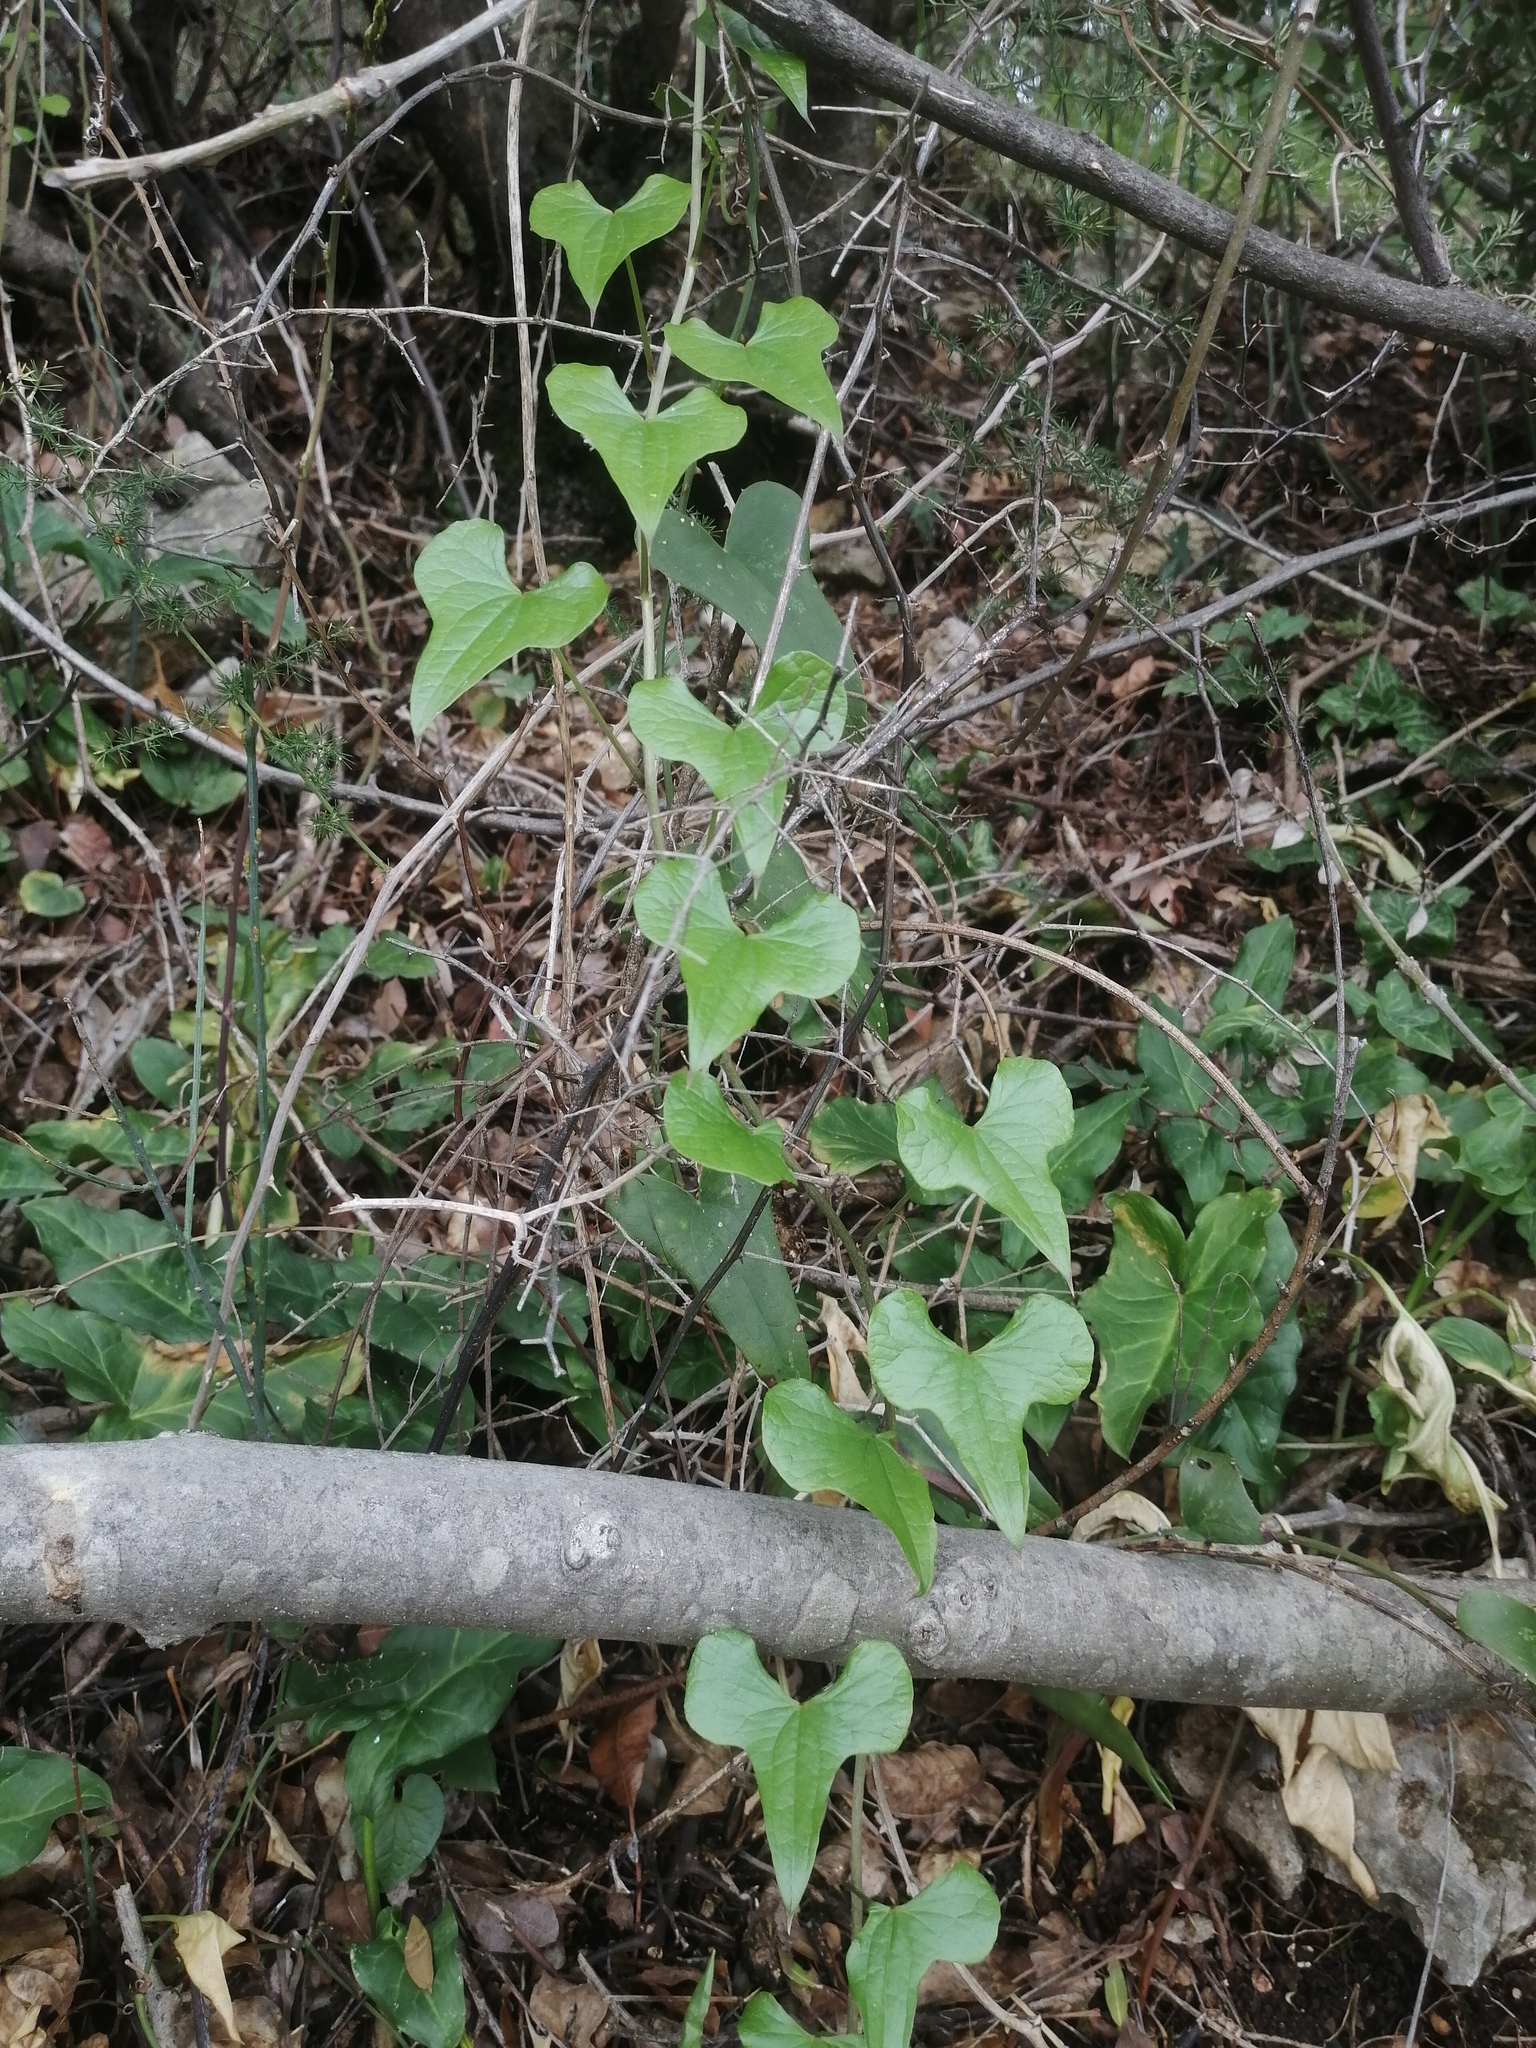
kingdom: Plantae
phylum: Tracheophyta
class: Liliopsida
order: Dioscoreales
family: Dioscoreaceae
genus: Dioscorea
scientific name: Dioscorea communis
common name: Black-bindweed
